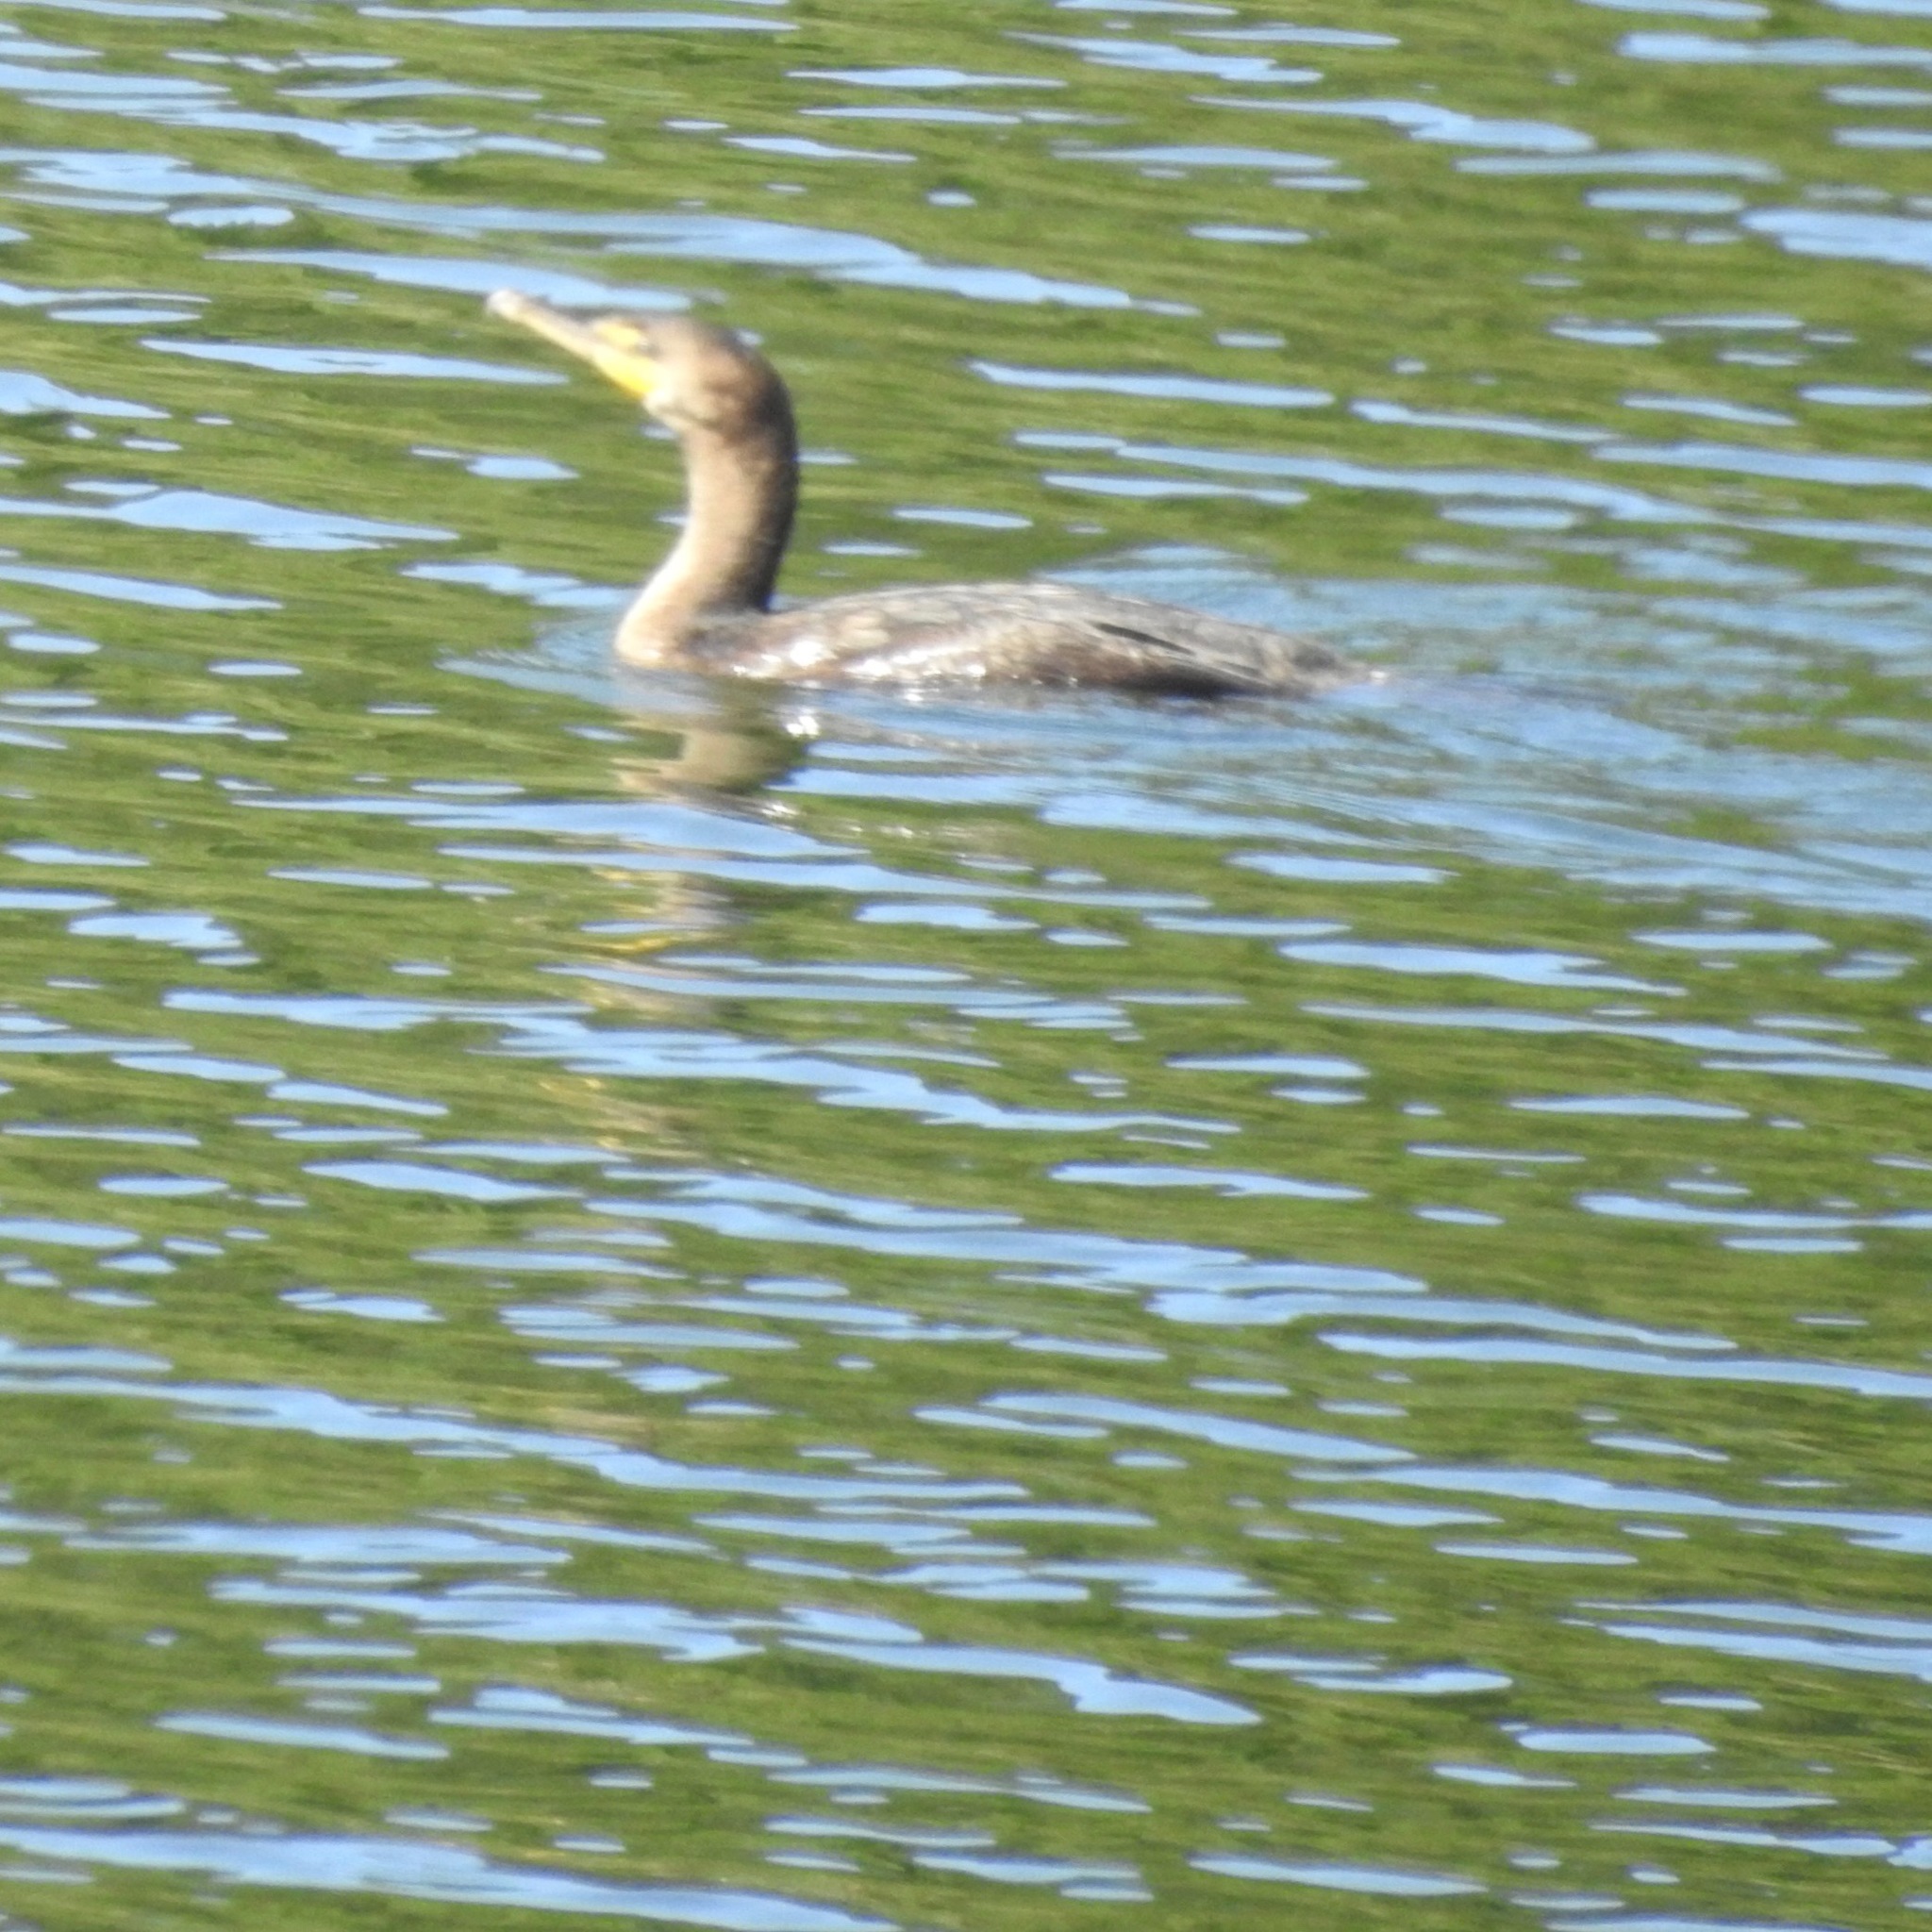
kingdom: Animalia
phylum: Chordata
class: Aves
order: Suliformes
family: Phalacrocoracidae
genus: Phalacrocorax
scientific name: Phalacrocorax auritus
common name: Double-crested cormorant
